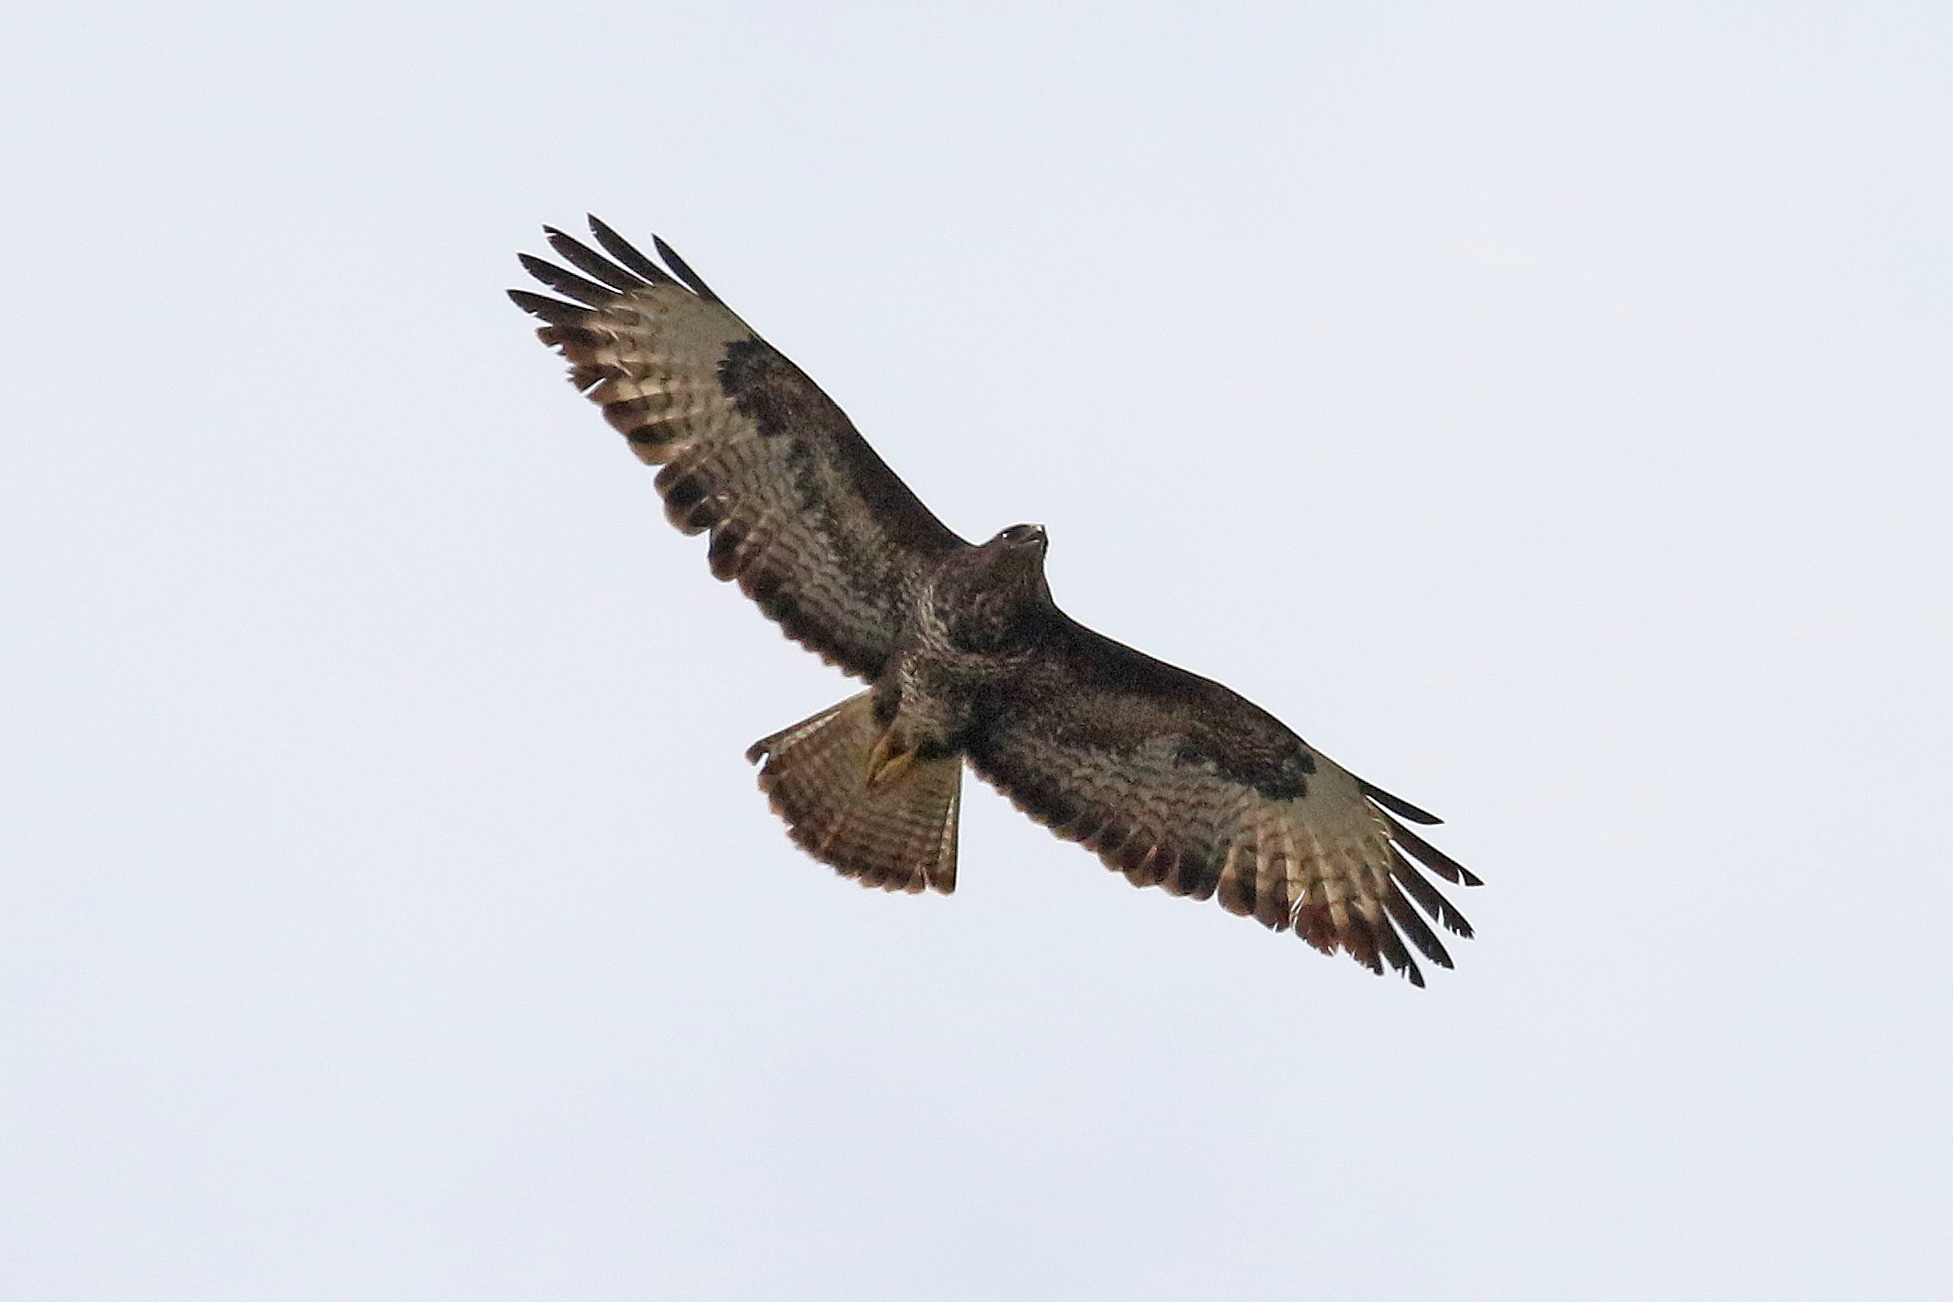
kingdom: Animalia
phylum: Chordata
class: Aves
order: Accipitriformes
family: Accipitridae
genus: Buteo
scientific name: Buteo buteo
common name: Common buzzard
